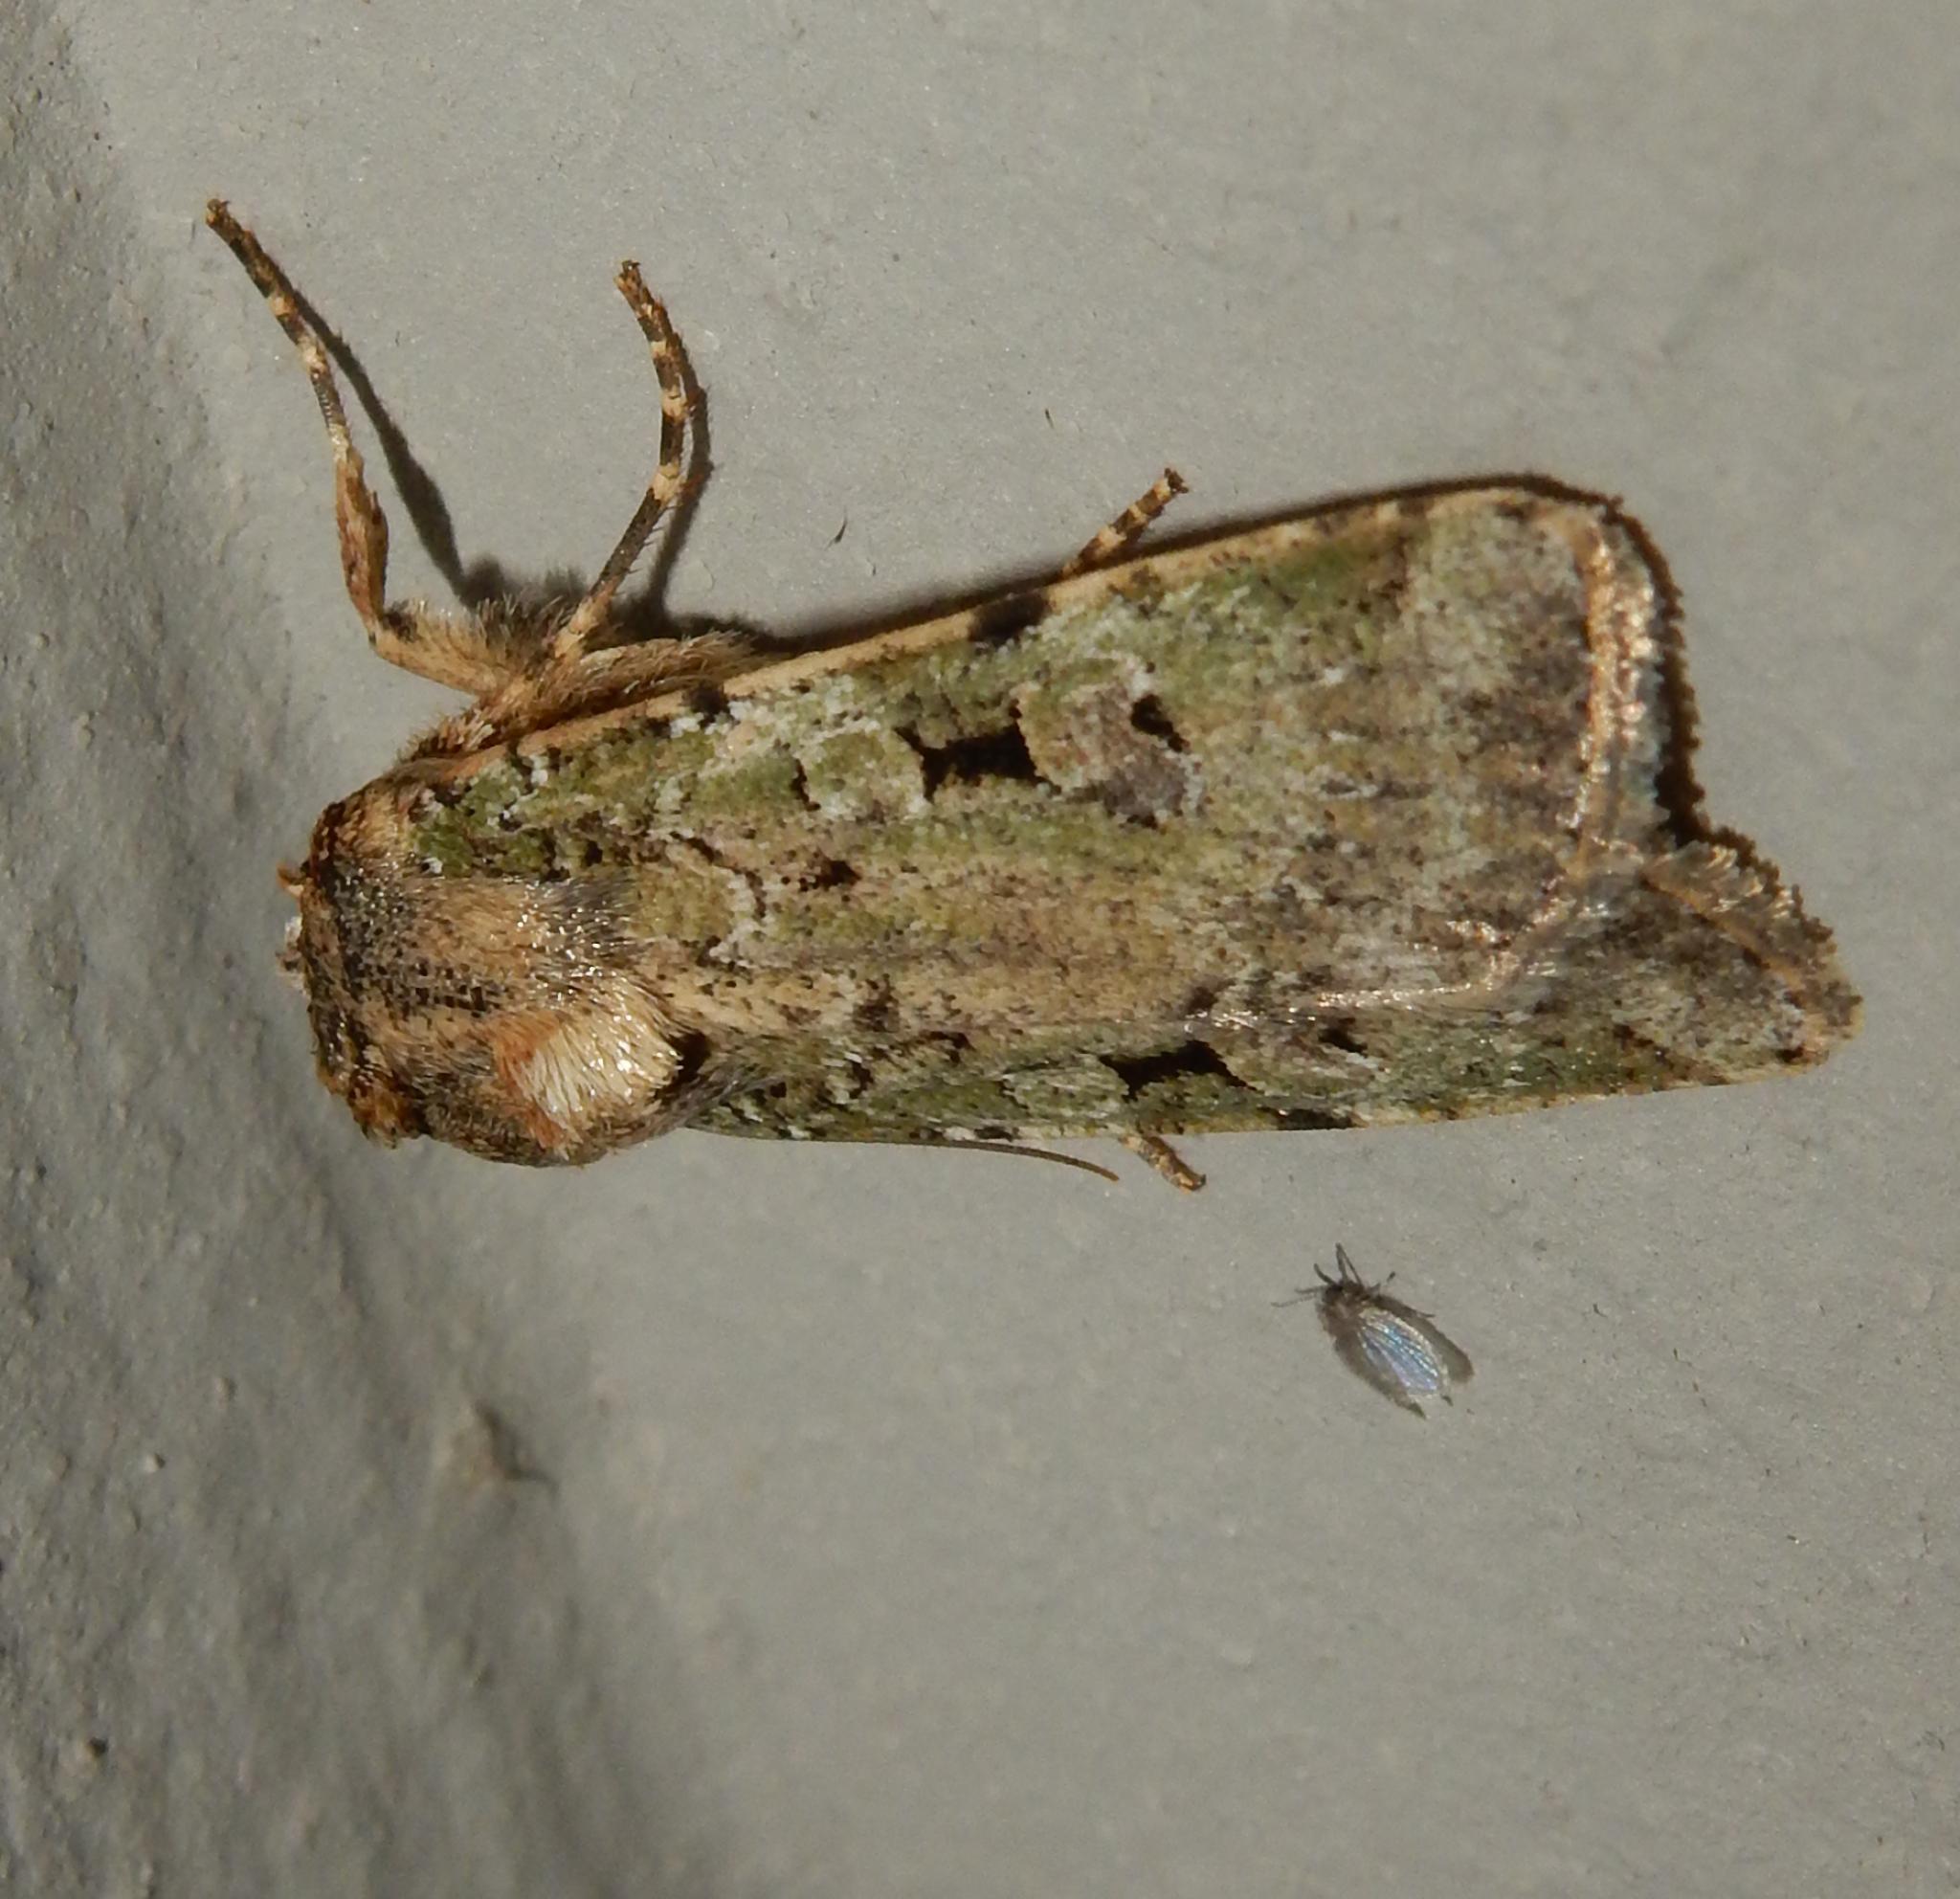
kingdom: Animalia
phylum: Arthropoda
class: Insecta
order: Lepidoptera
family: Noctuidae
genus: Mentaxya
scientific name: Mentaxya ignicollis
